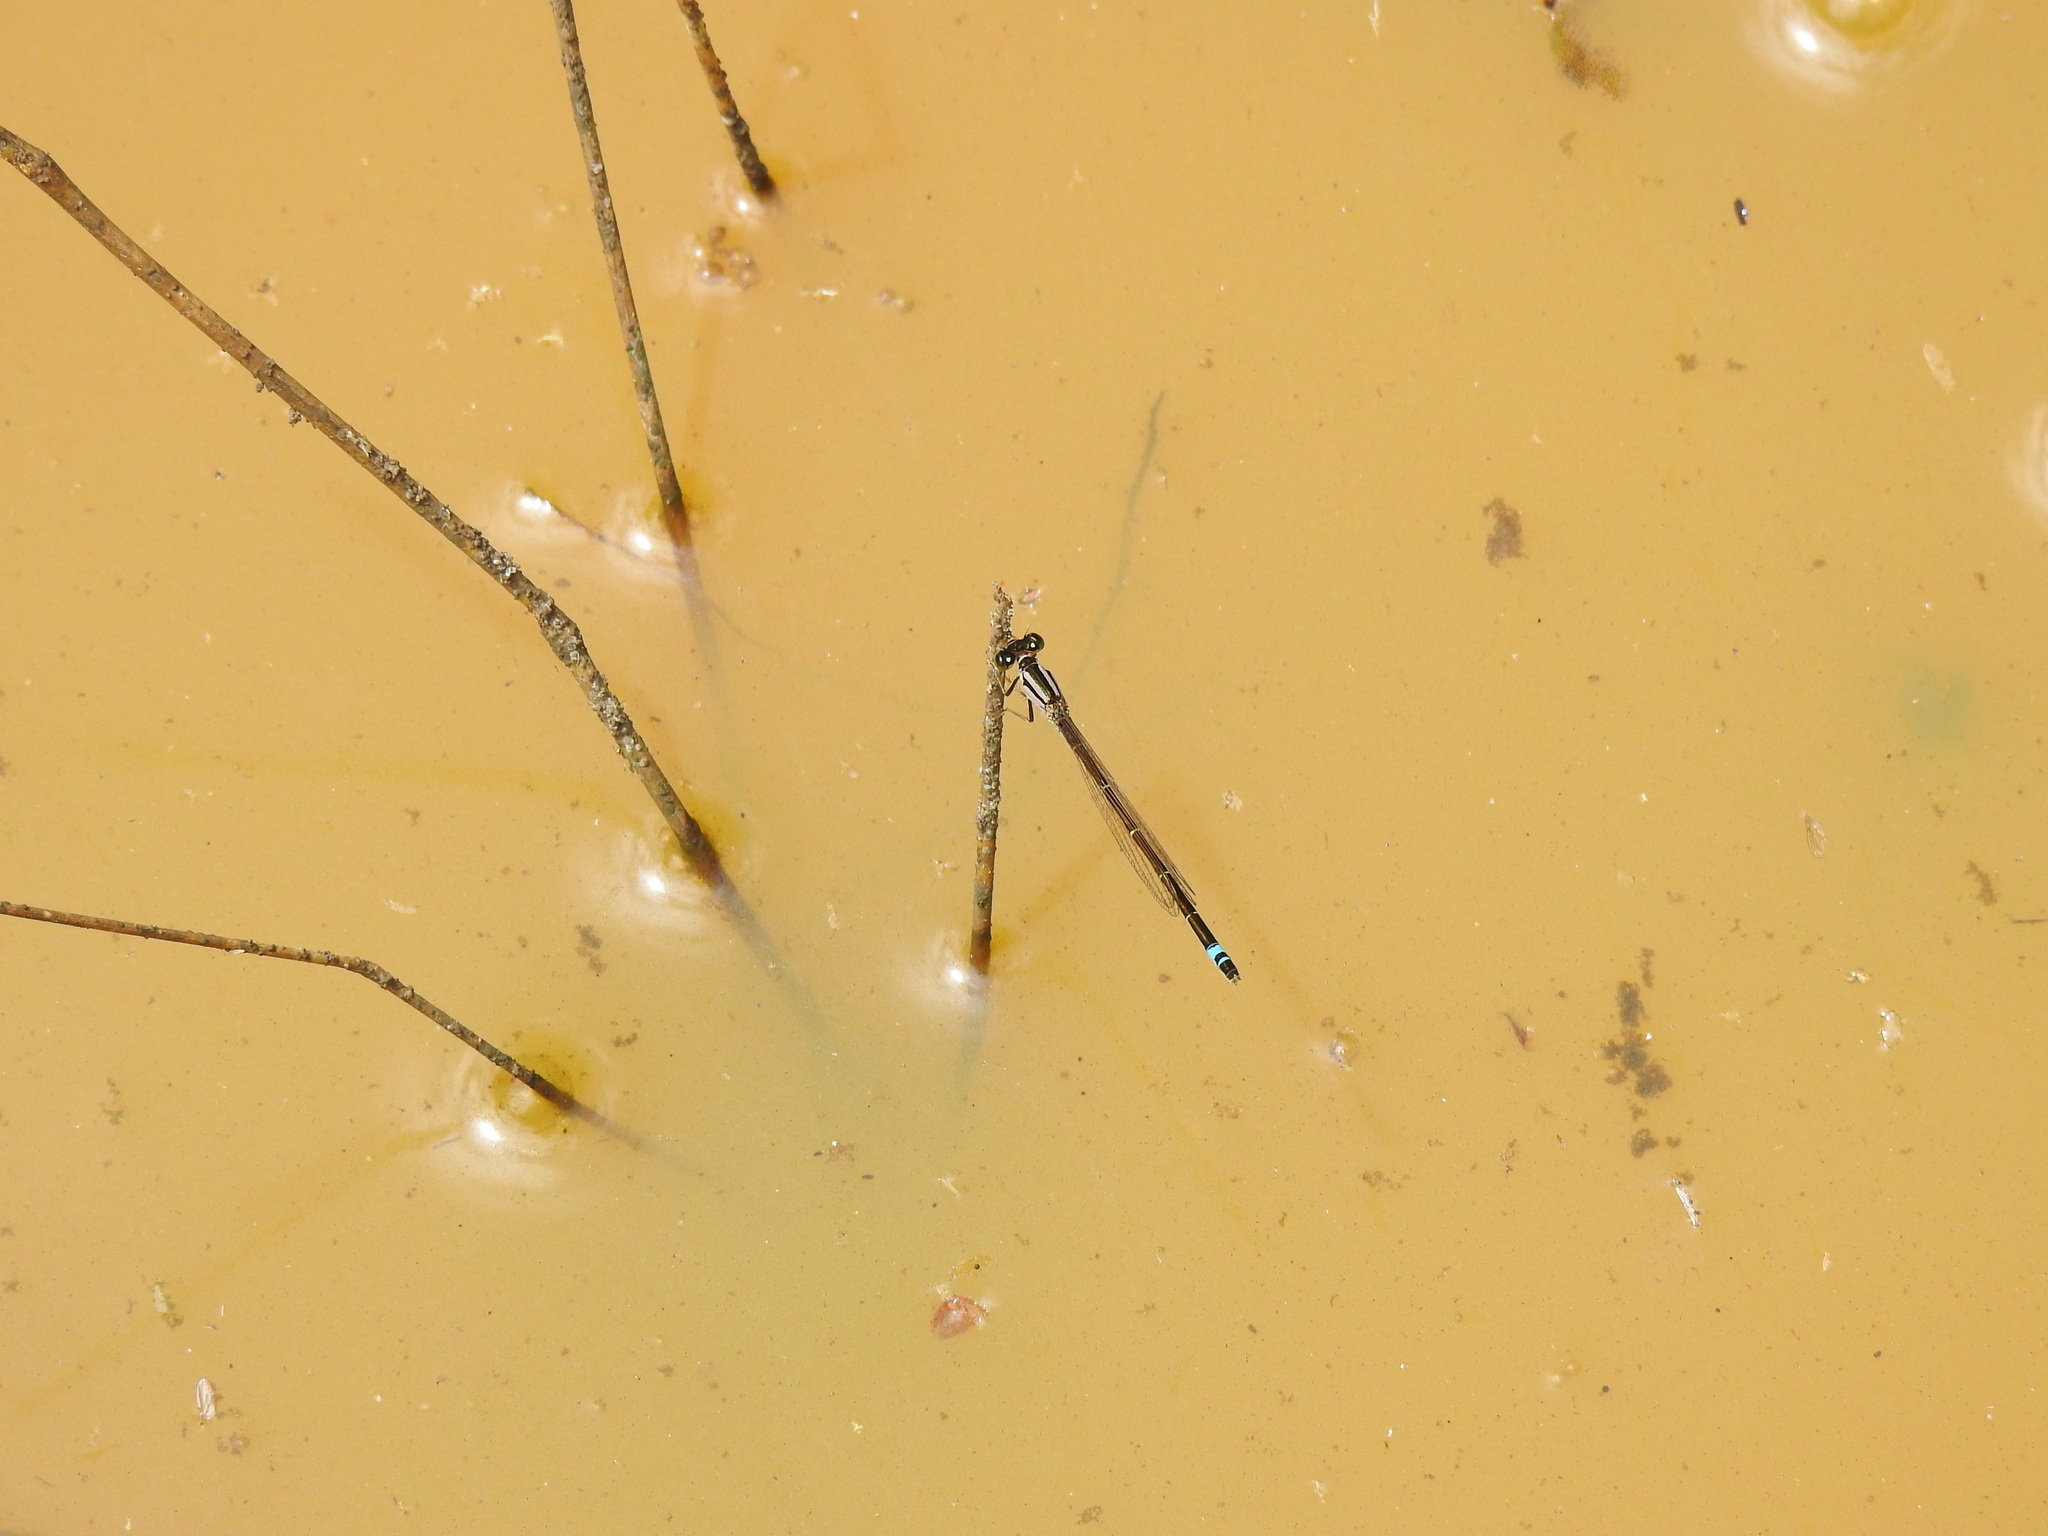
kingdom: Animalia
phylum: Arthropoda
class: Insecta
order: Odonata
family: Coenagrionidae
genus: Ischnura
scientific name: Ischnura graellsii
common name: Iberian bluetail
